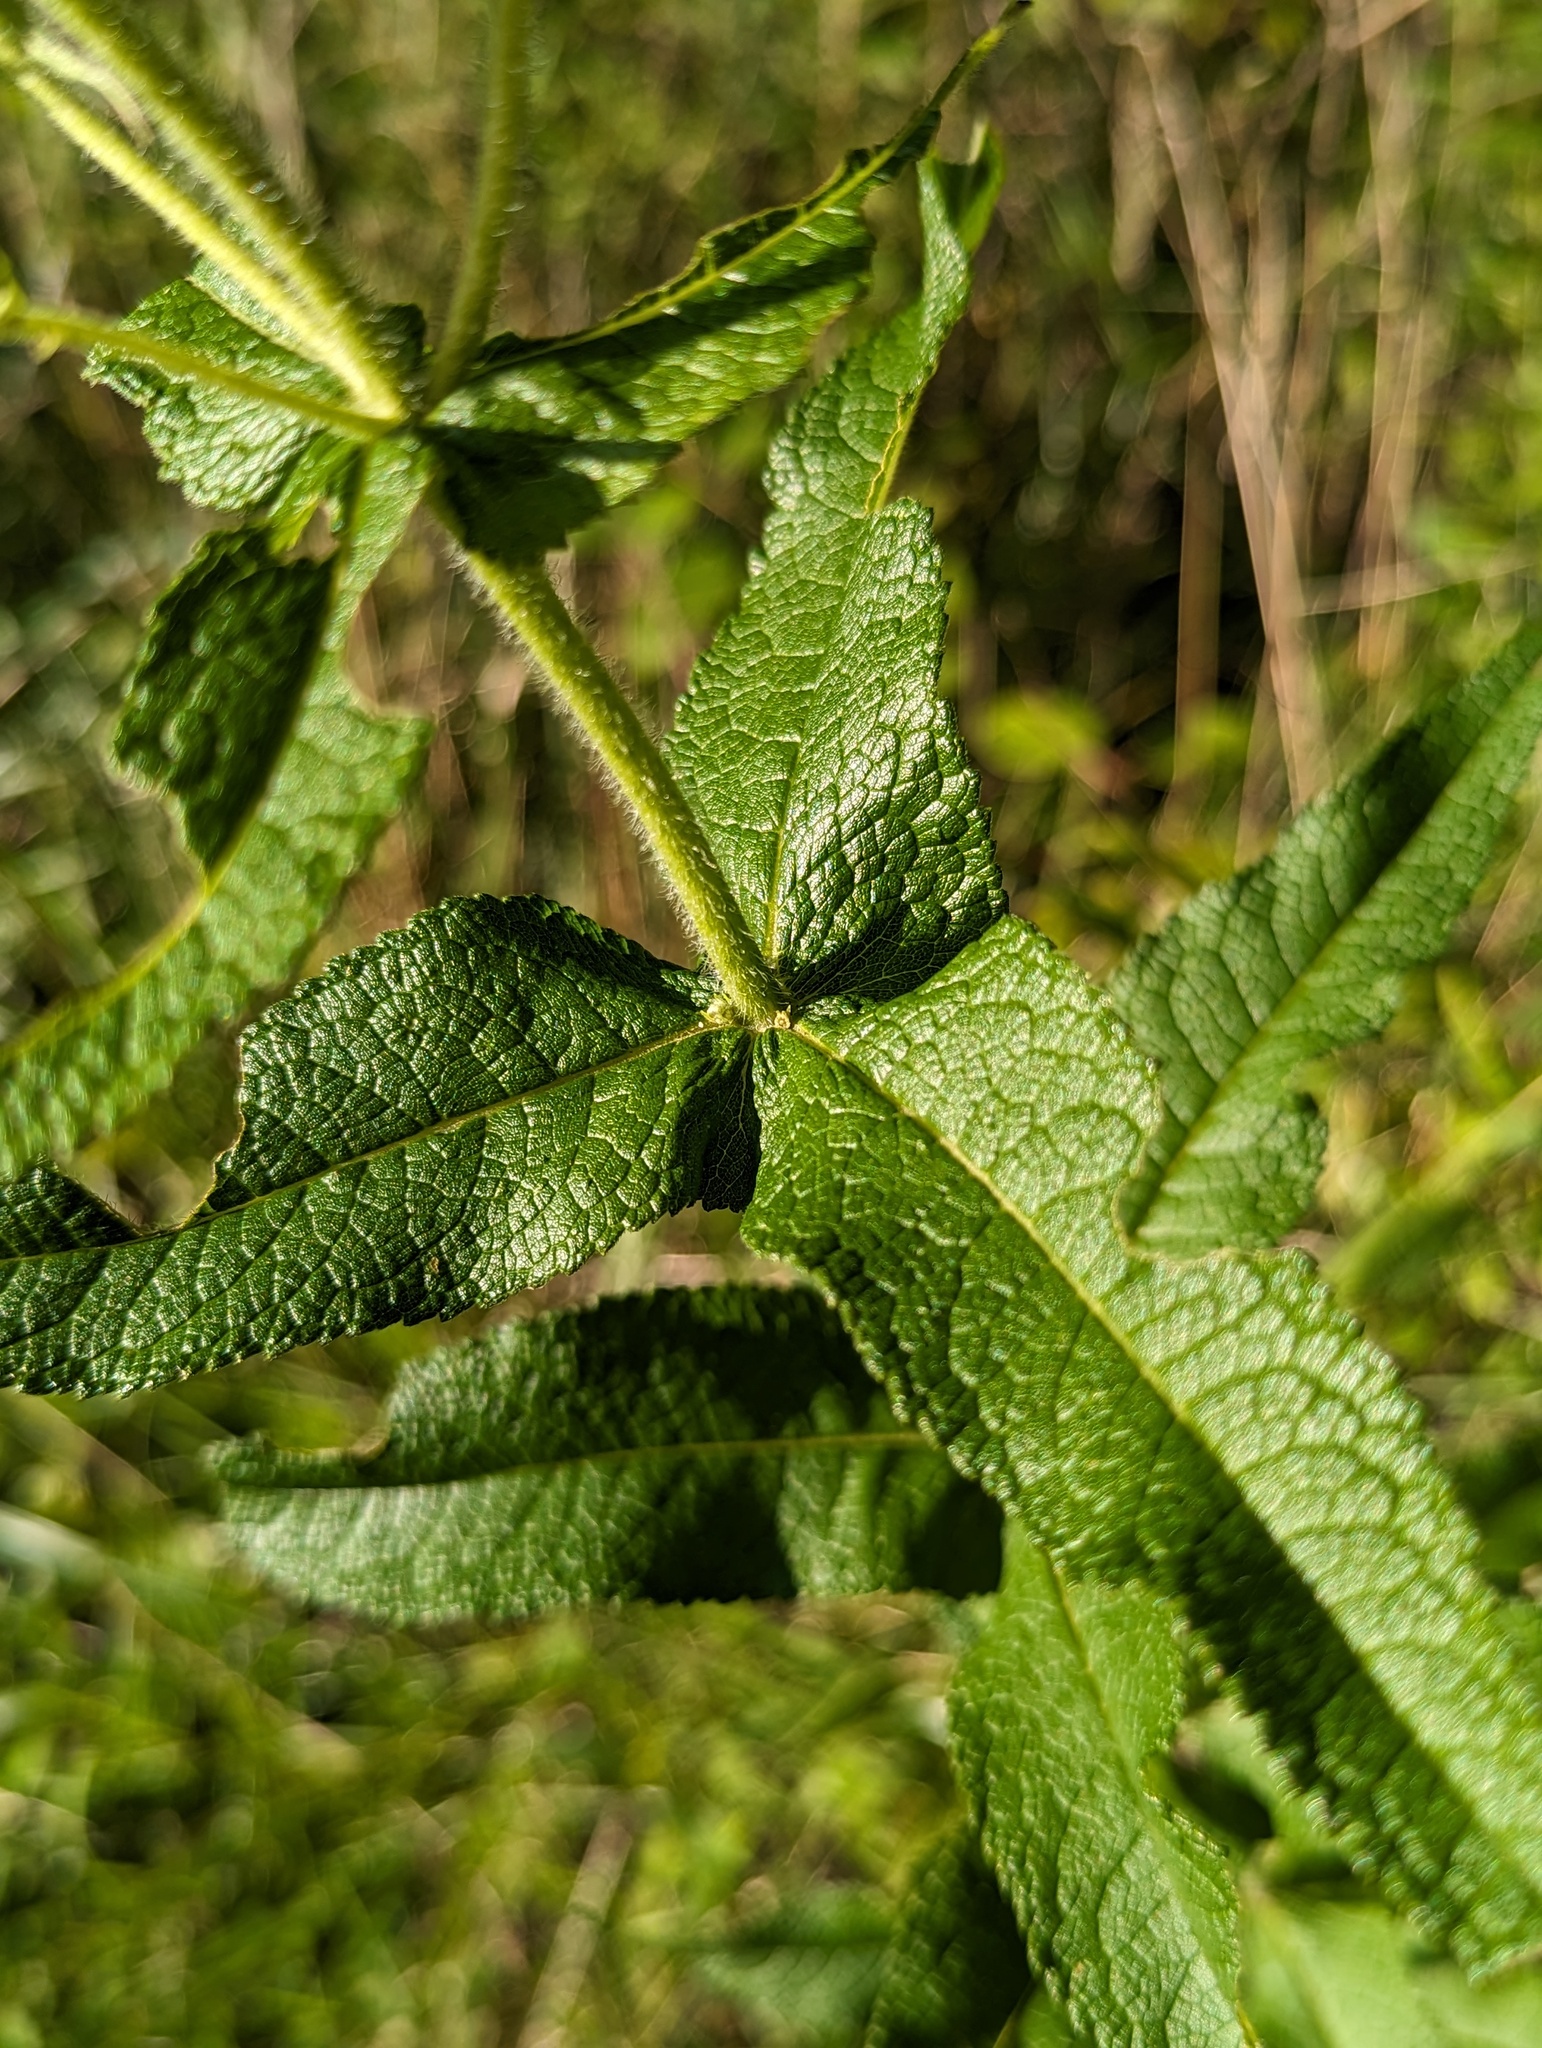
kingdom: Plantae
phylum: Tracheophyta
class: Magnoliopsida
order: Asterales
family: Asteraceae
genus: Eupatorium
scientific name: Eupatorium perfoliatum
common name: Boneset
